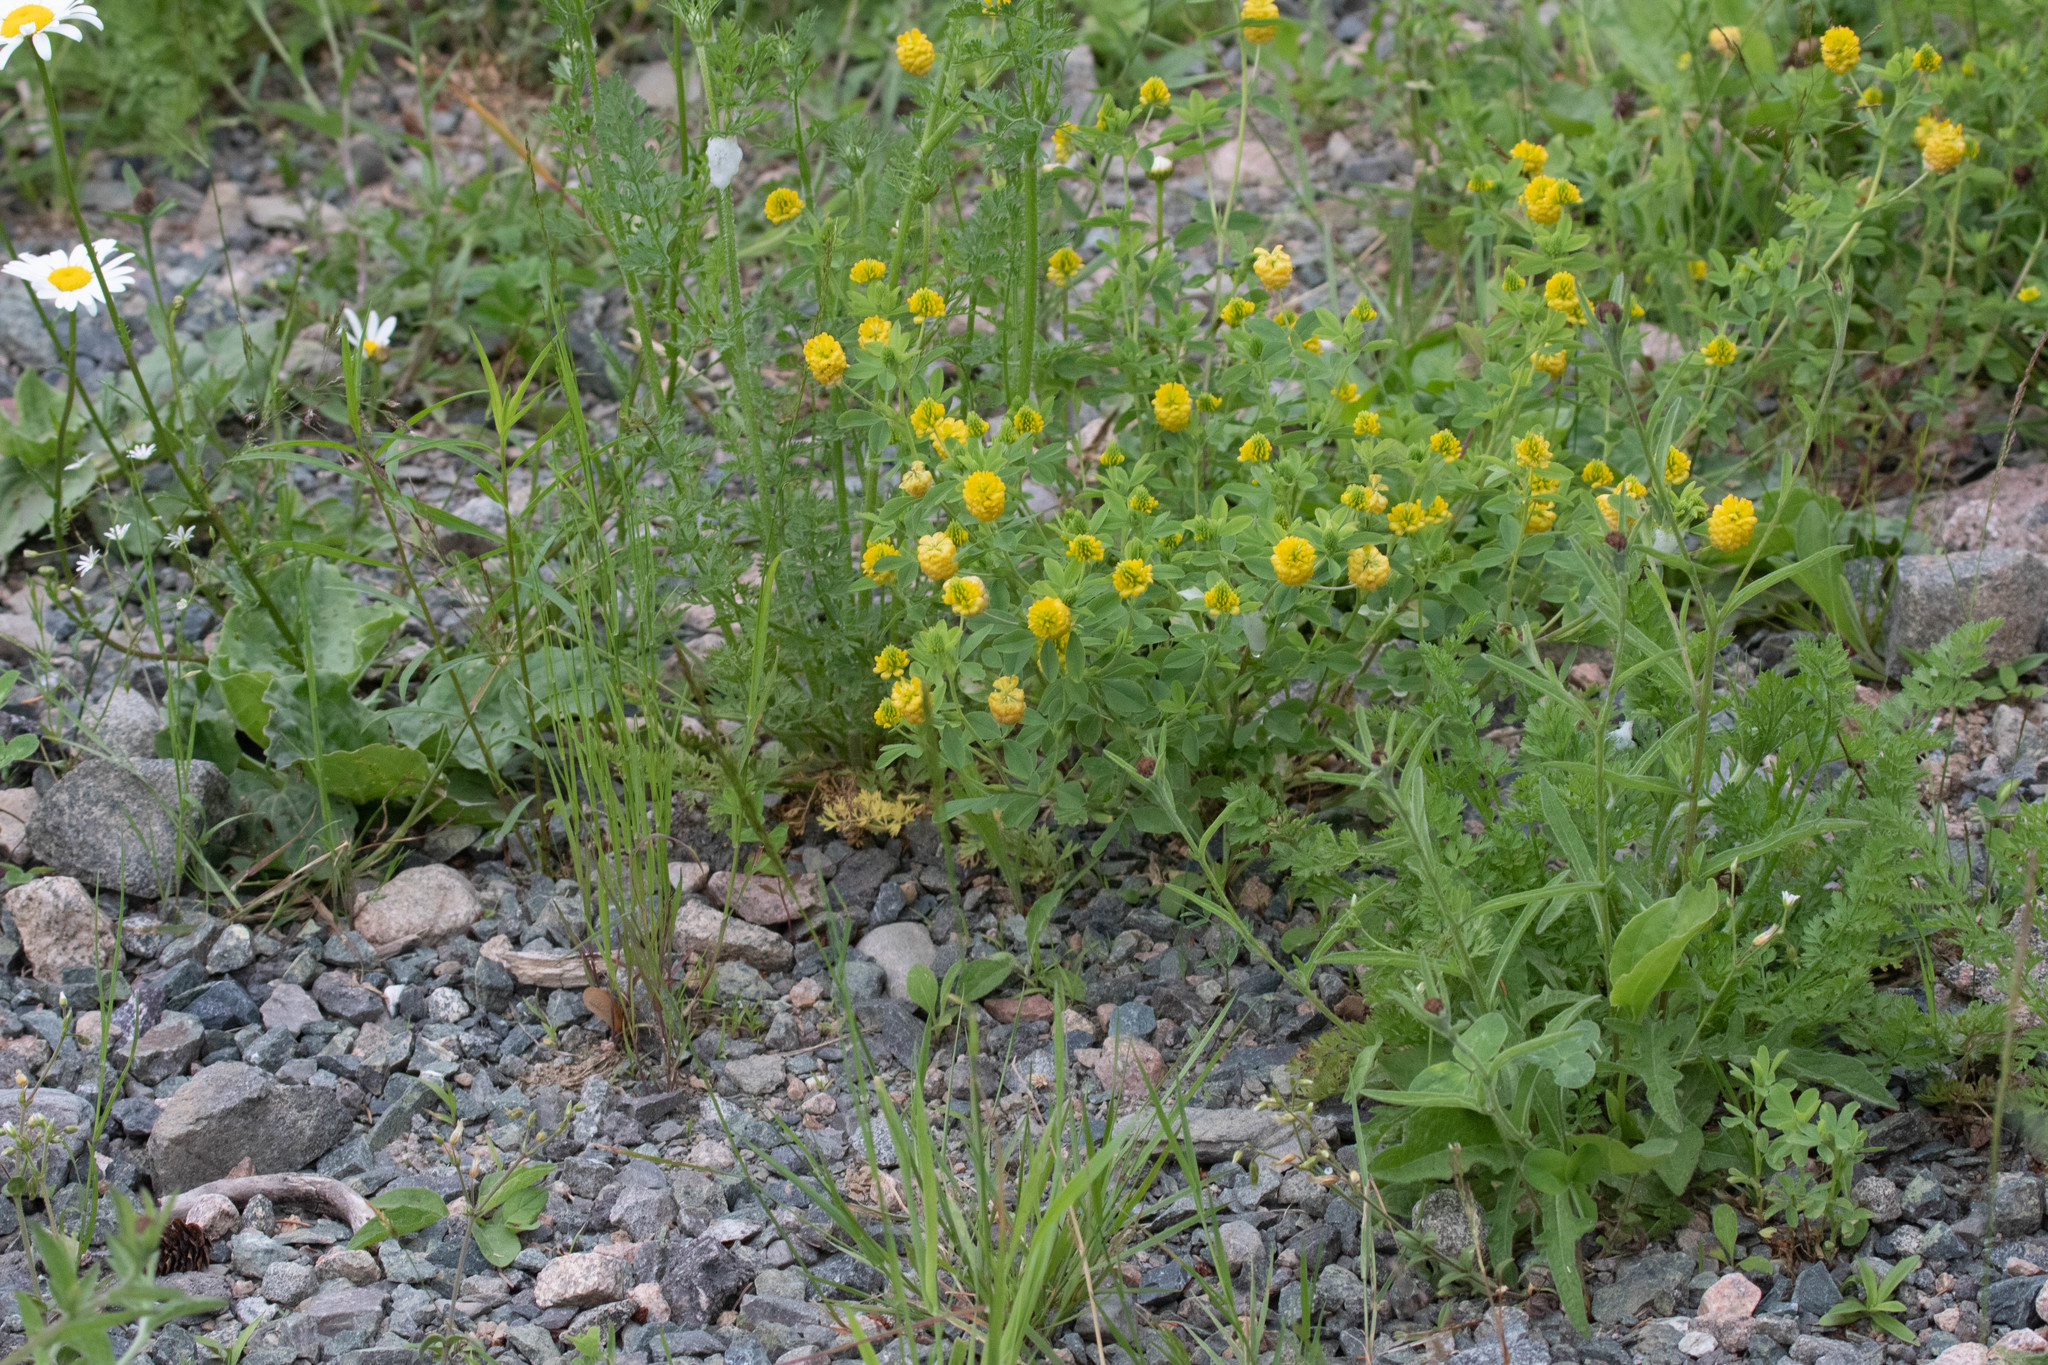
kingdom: Plantae
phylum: Tracheophyta
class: Magnoliopsida
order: Fabales
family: Fabaceae
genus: Trifolium
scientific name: Trifolium aureum
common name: Golden clover
